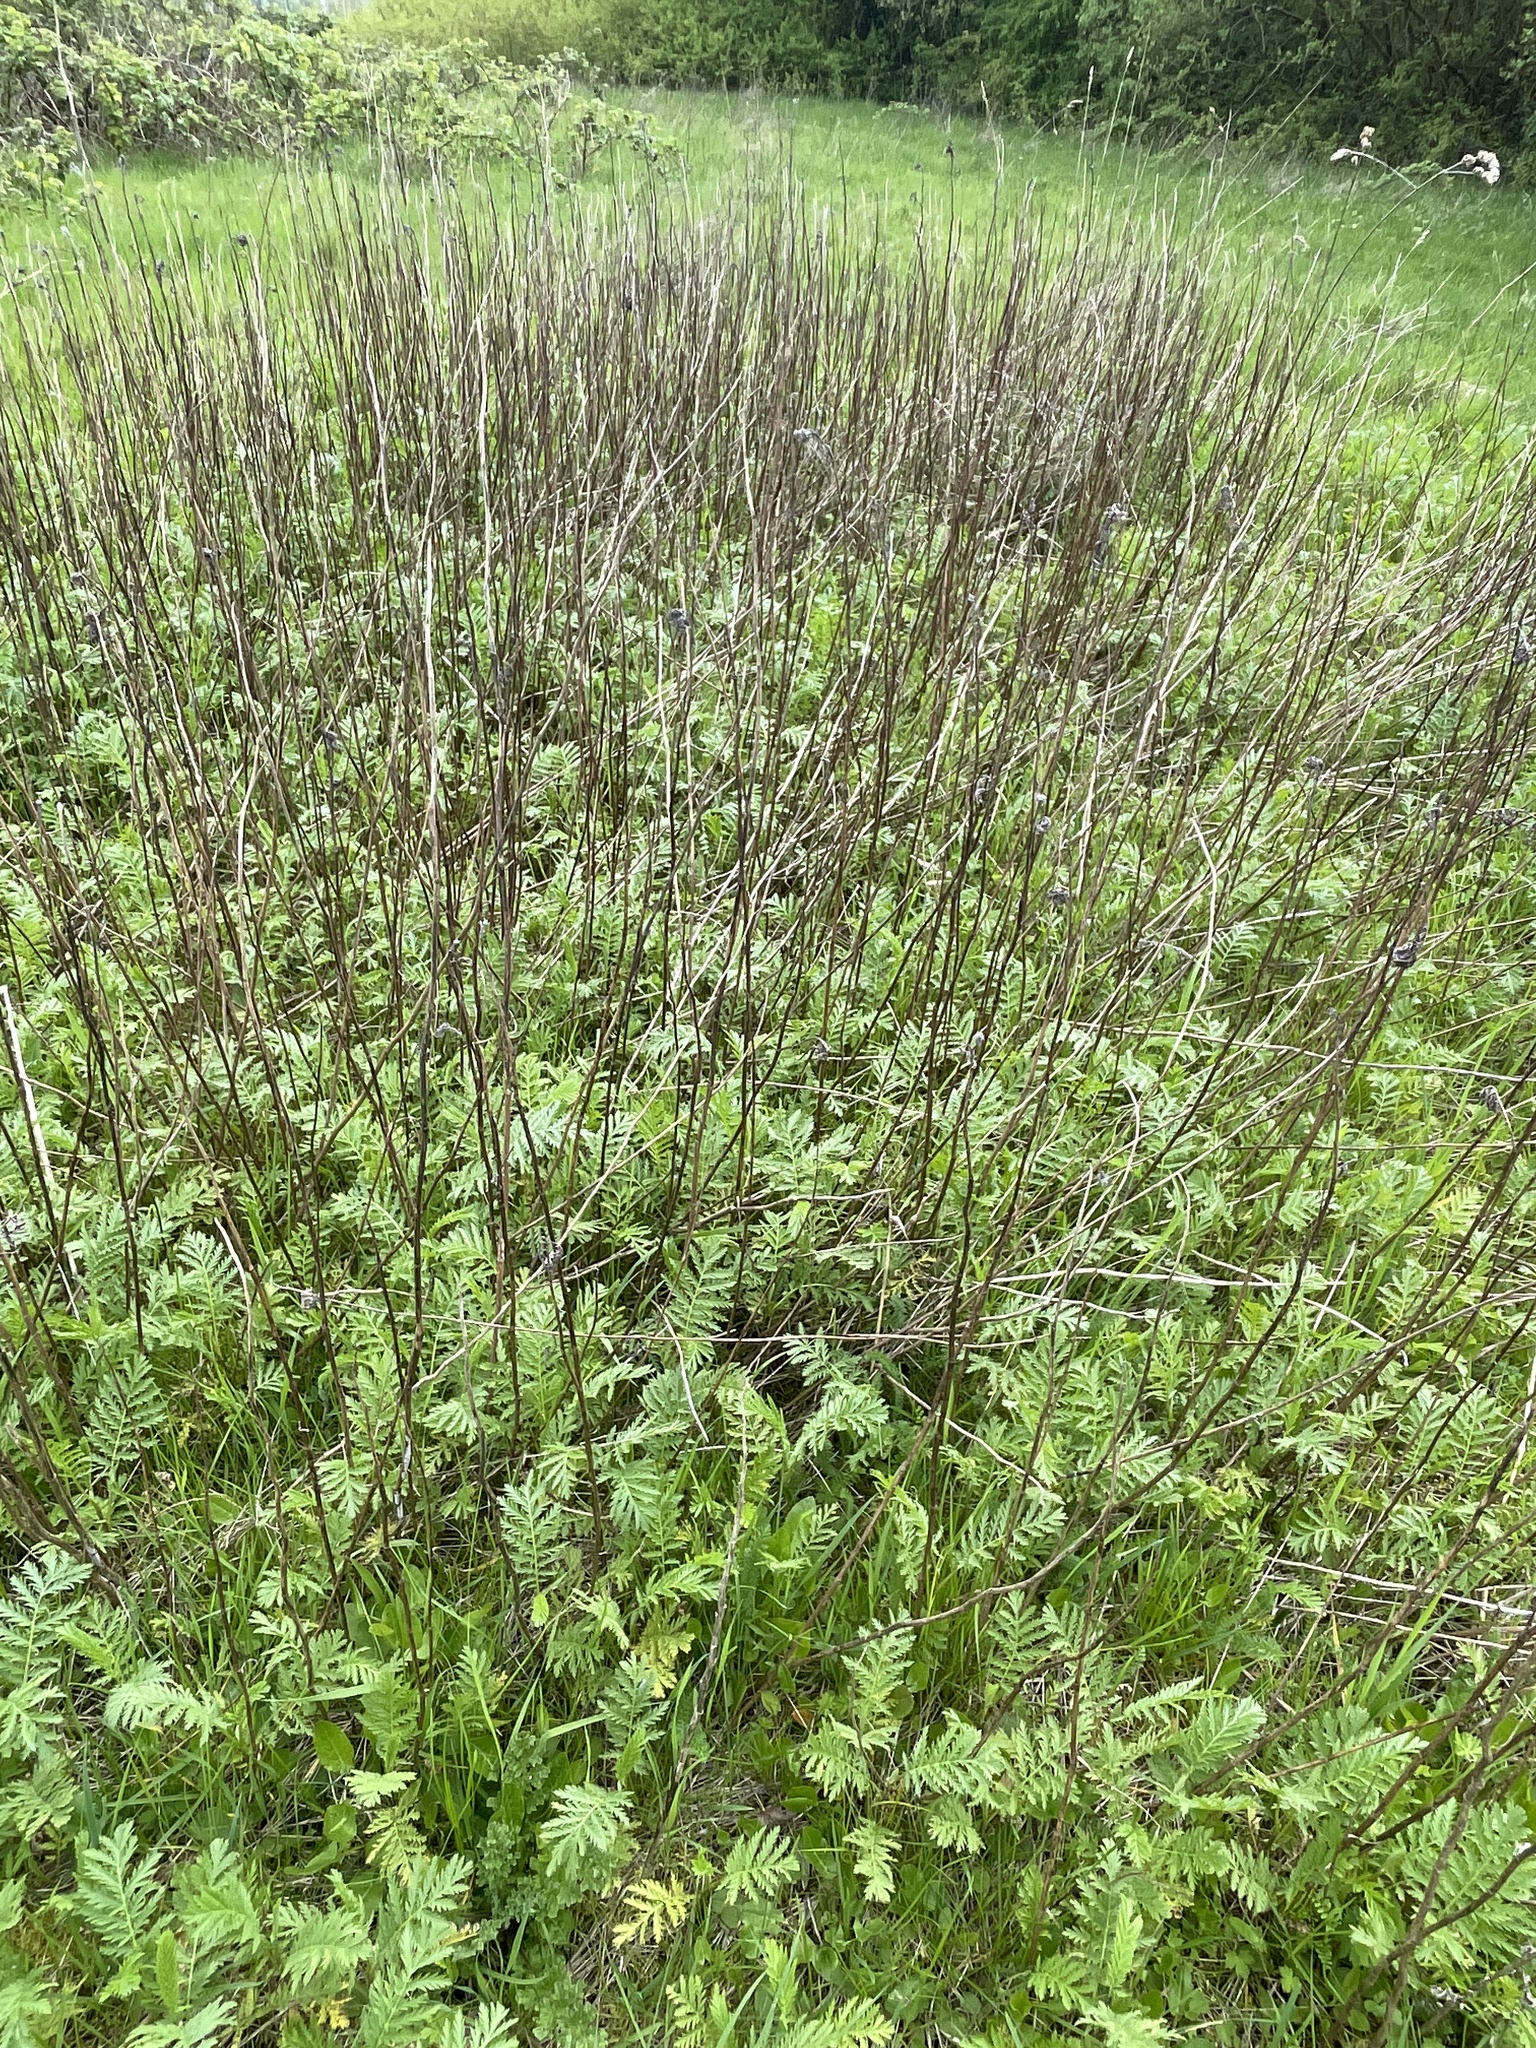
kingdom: Plantae
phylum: Tracheophyta
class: Magnoliopsida
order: Asterales
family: Asteraceae
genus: Tanacetum
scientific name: Tanacetum vulgare
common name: Common tansy
